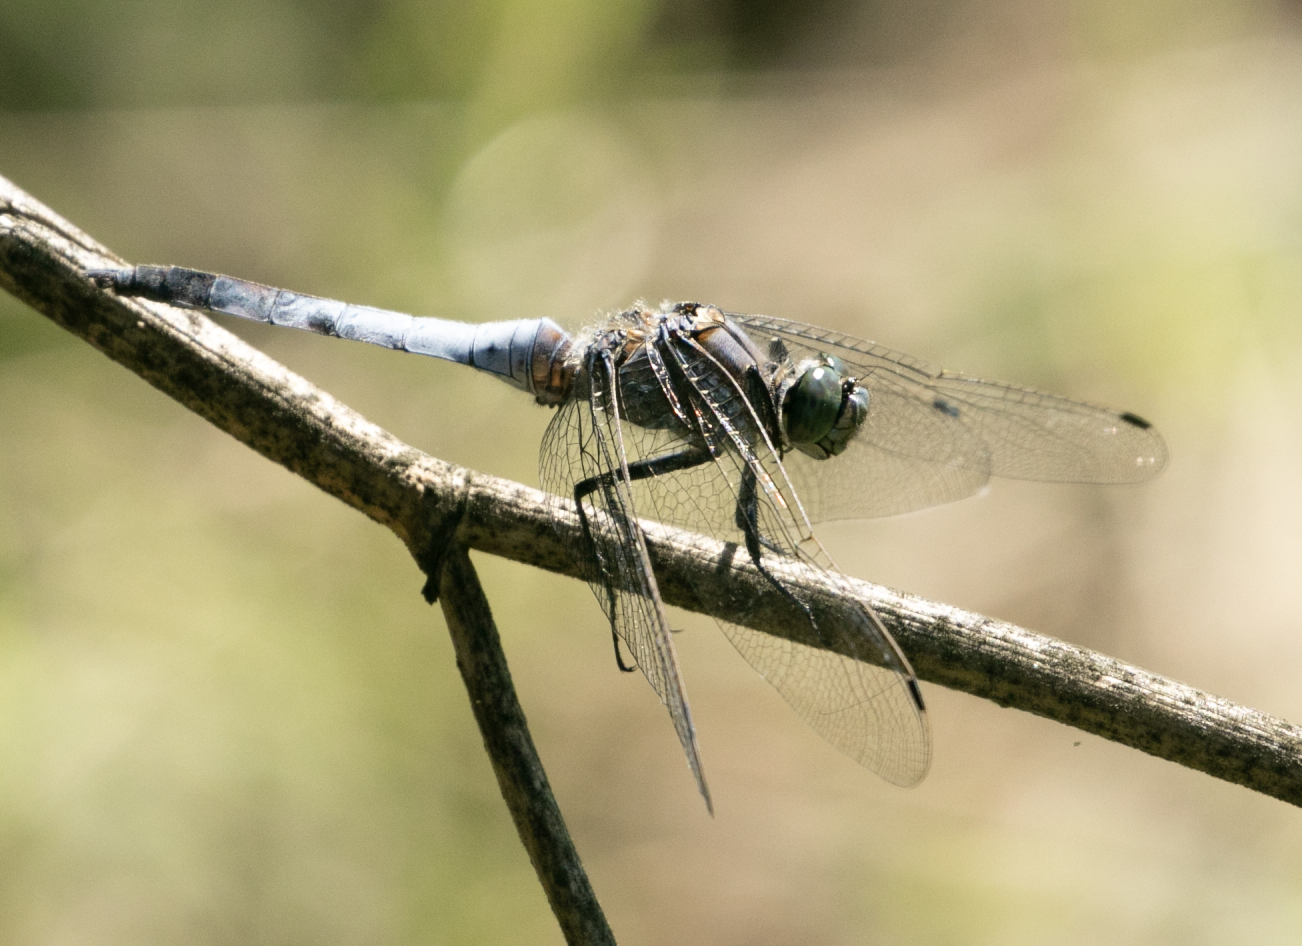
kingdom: Animalia
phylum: Arthropoda
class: Insecta
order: Odonata
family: Libellulidae
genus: Orthetrum
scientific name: Orthetrum cancellatum
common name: Black-tailed skimmer
